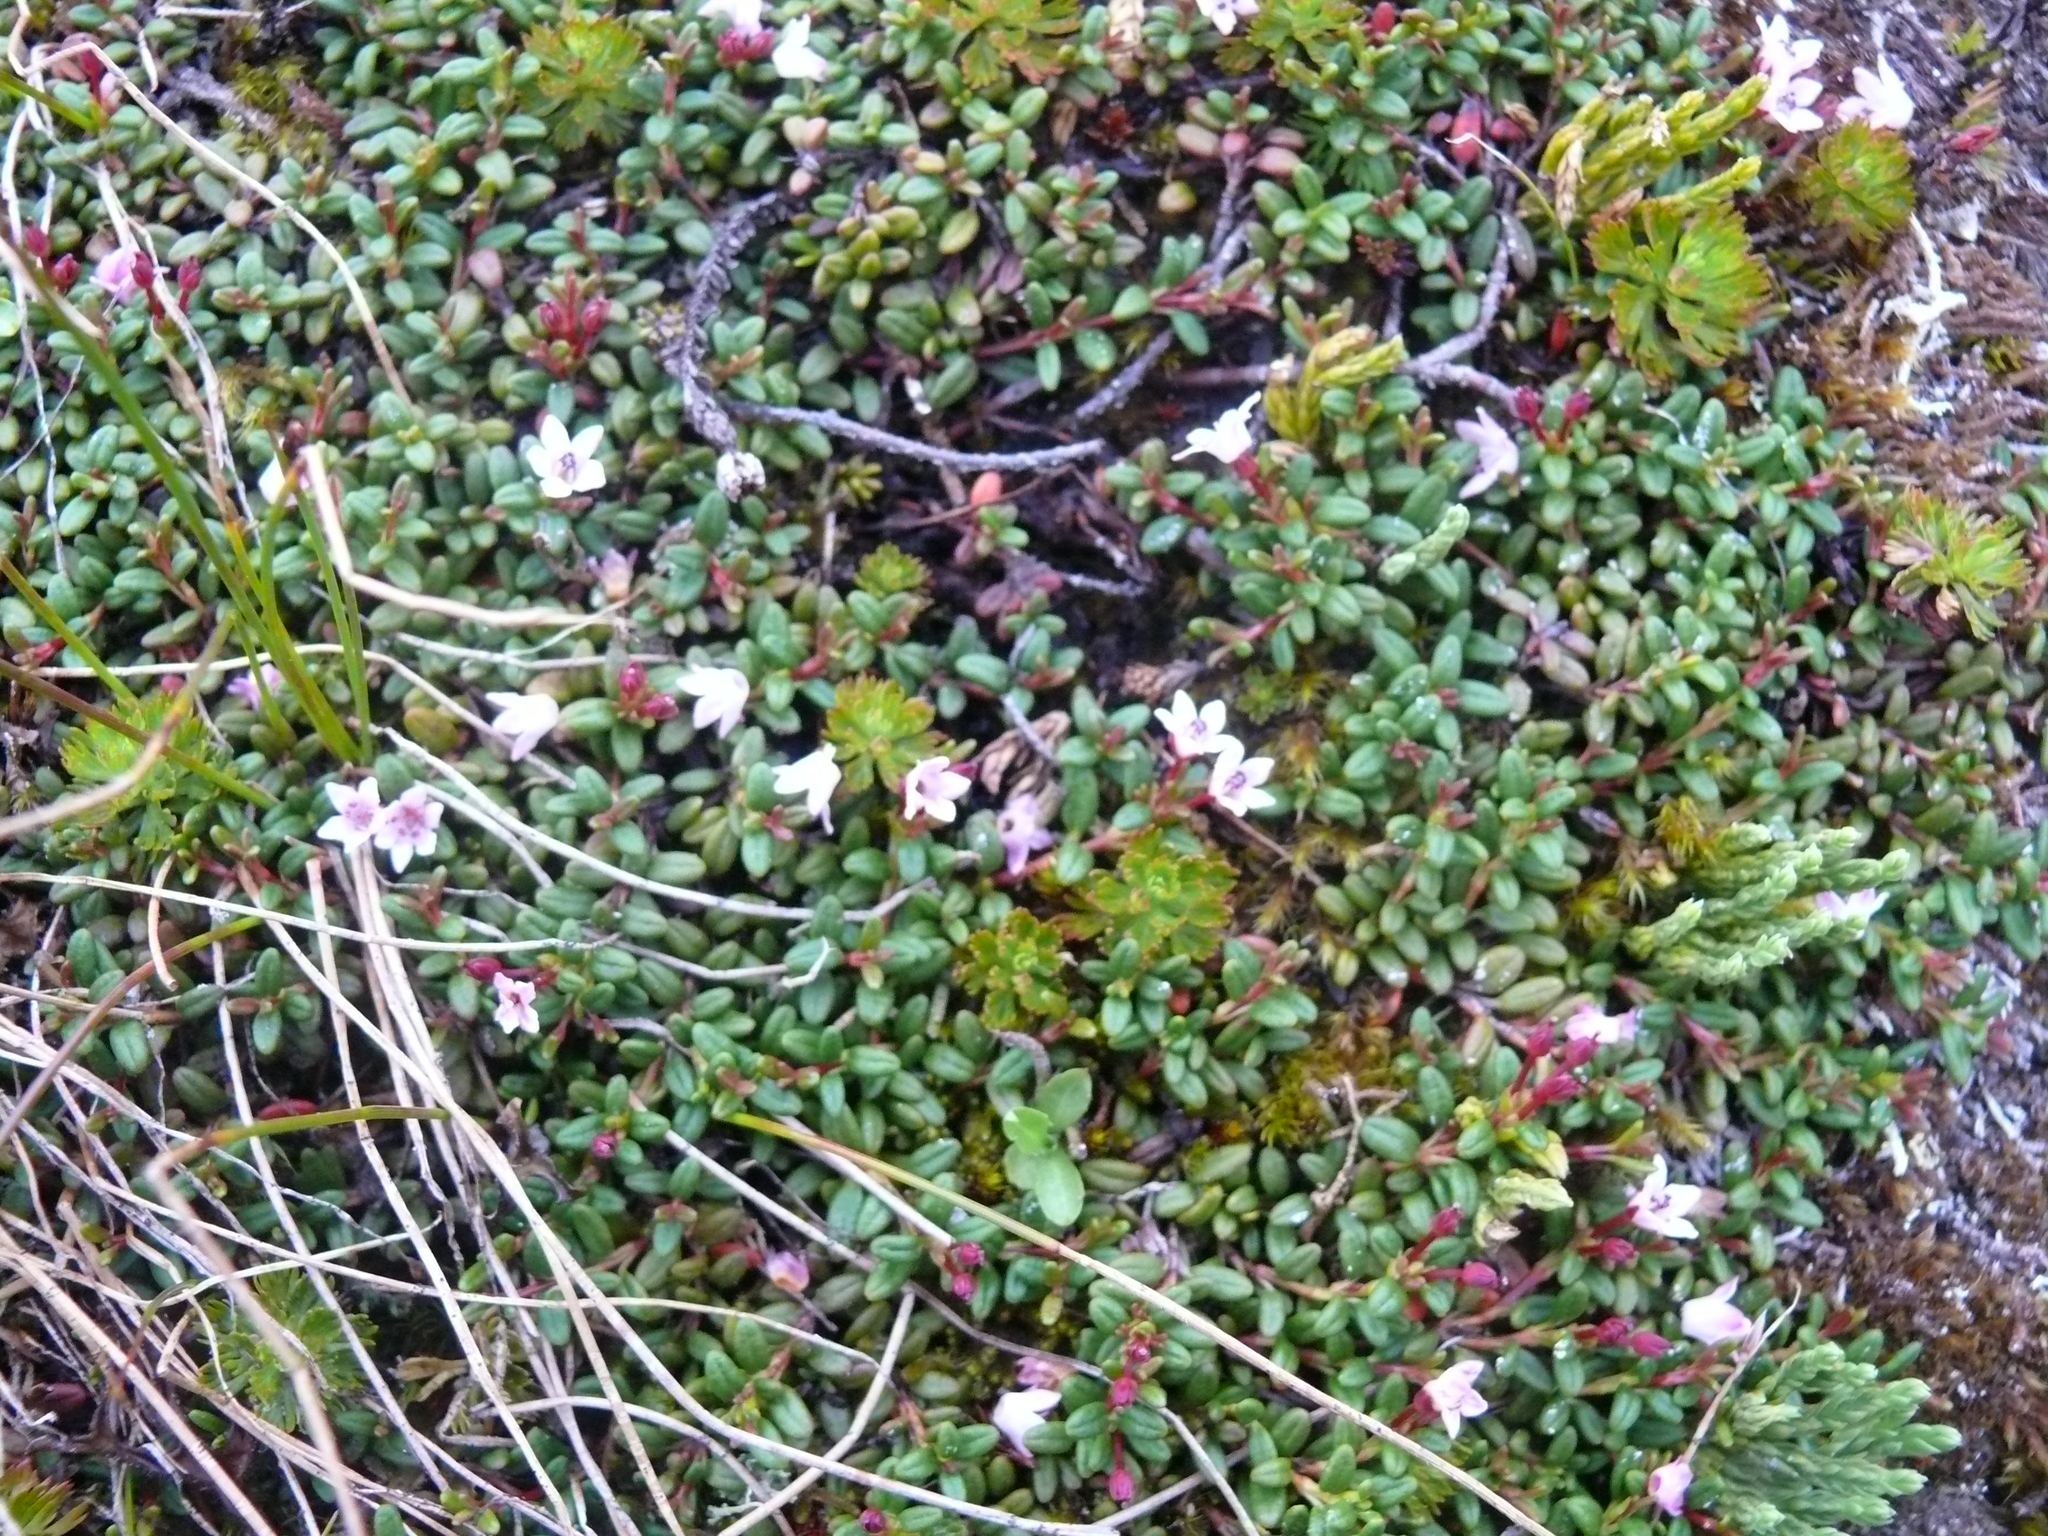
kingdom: Plantae
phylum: Tracheophyta
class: Magnoliopsida
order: Ericales
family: Ericaceae
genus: Kalmia
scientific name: Kalmia procumbens
